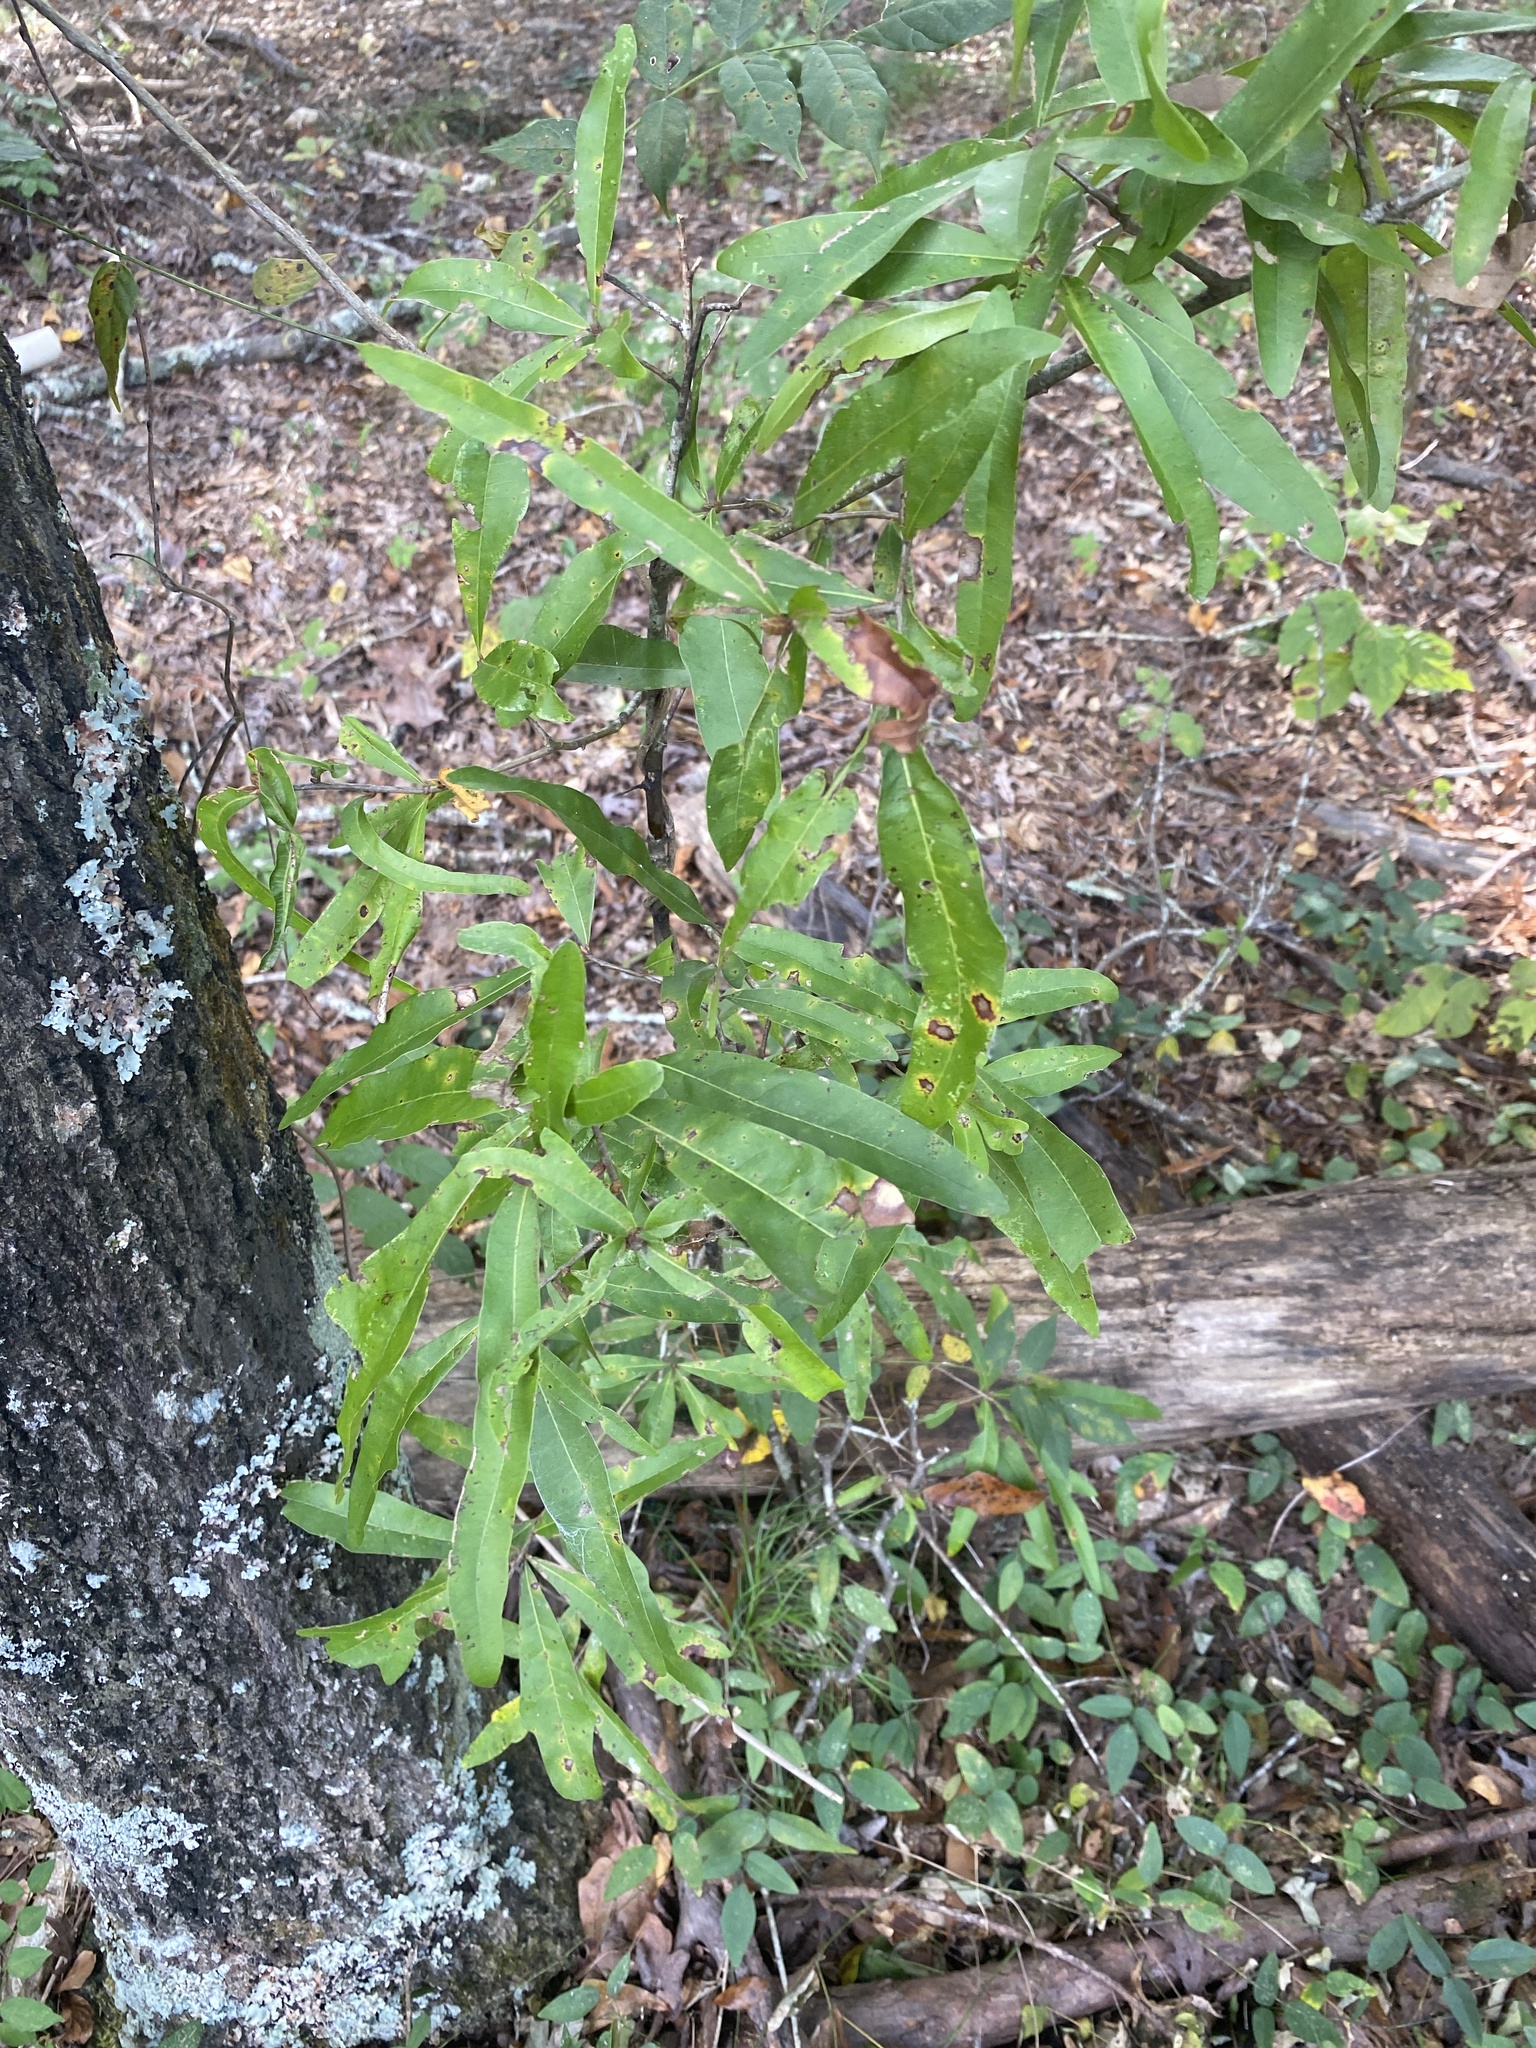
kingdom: Plantae
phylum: Tracheophyta
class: Magnoliopsida
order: Fagales
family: Fagaceae
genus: Quercus
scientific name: Quercus phellos
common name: Willow oak
